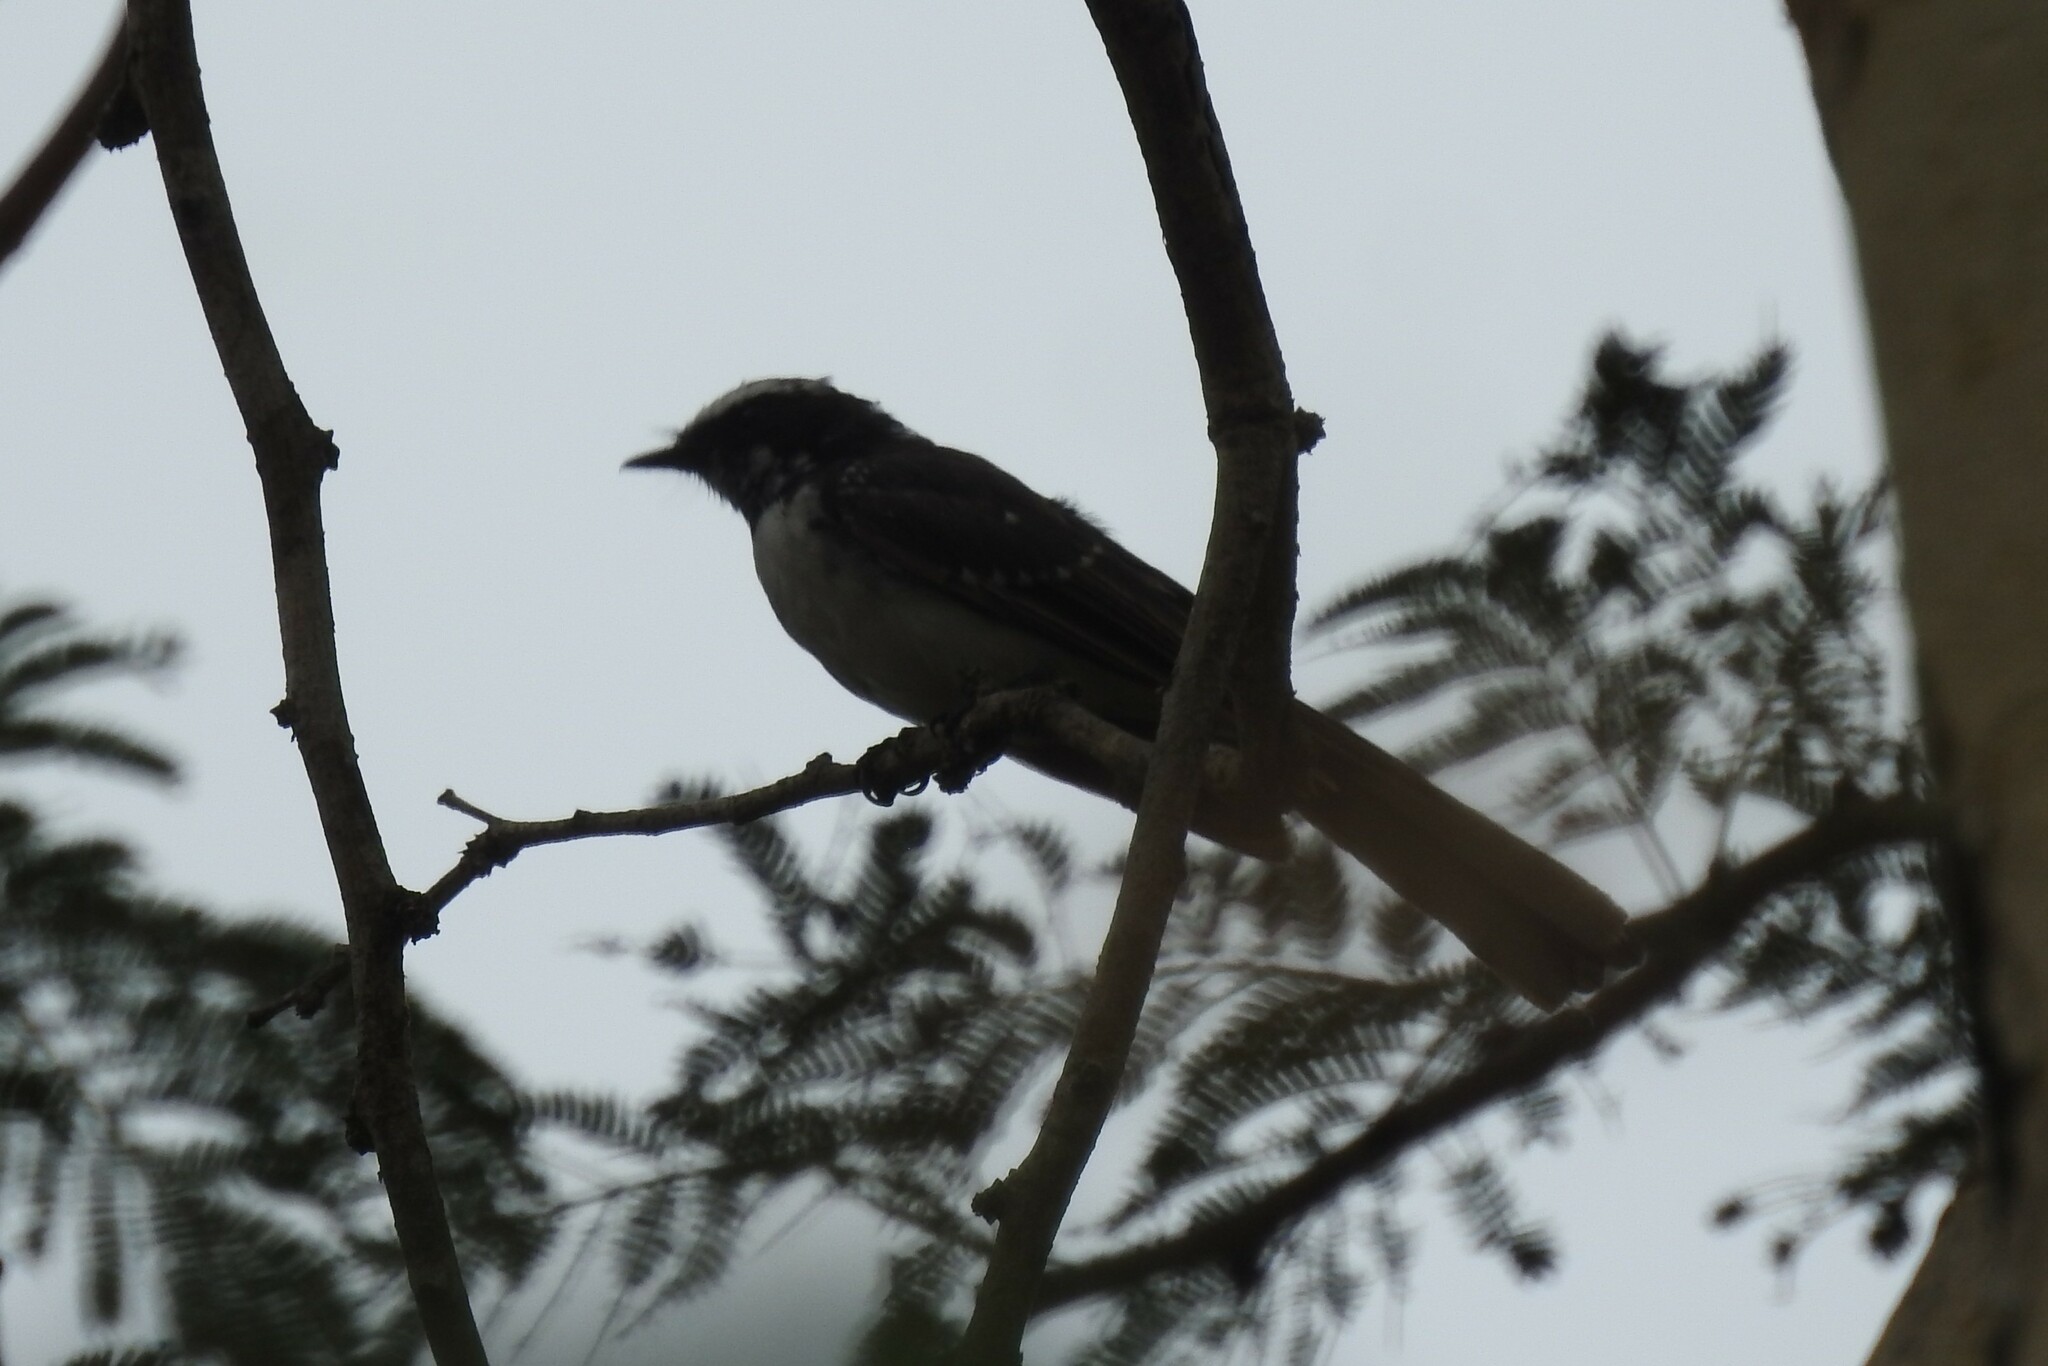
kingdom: Animalia
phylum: Chordata
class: Aves
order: Passeriformes
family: Rhipiduridae
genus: Rhipidura
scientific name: Rhipidura aureola
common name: White-browed fantail
